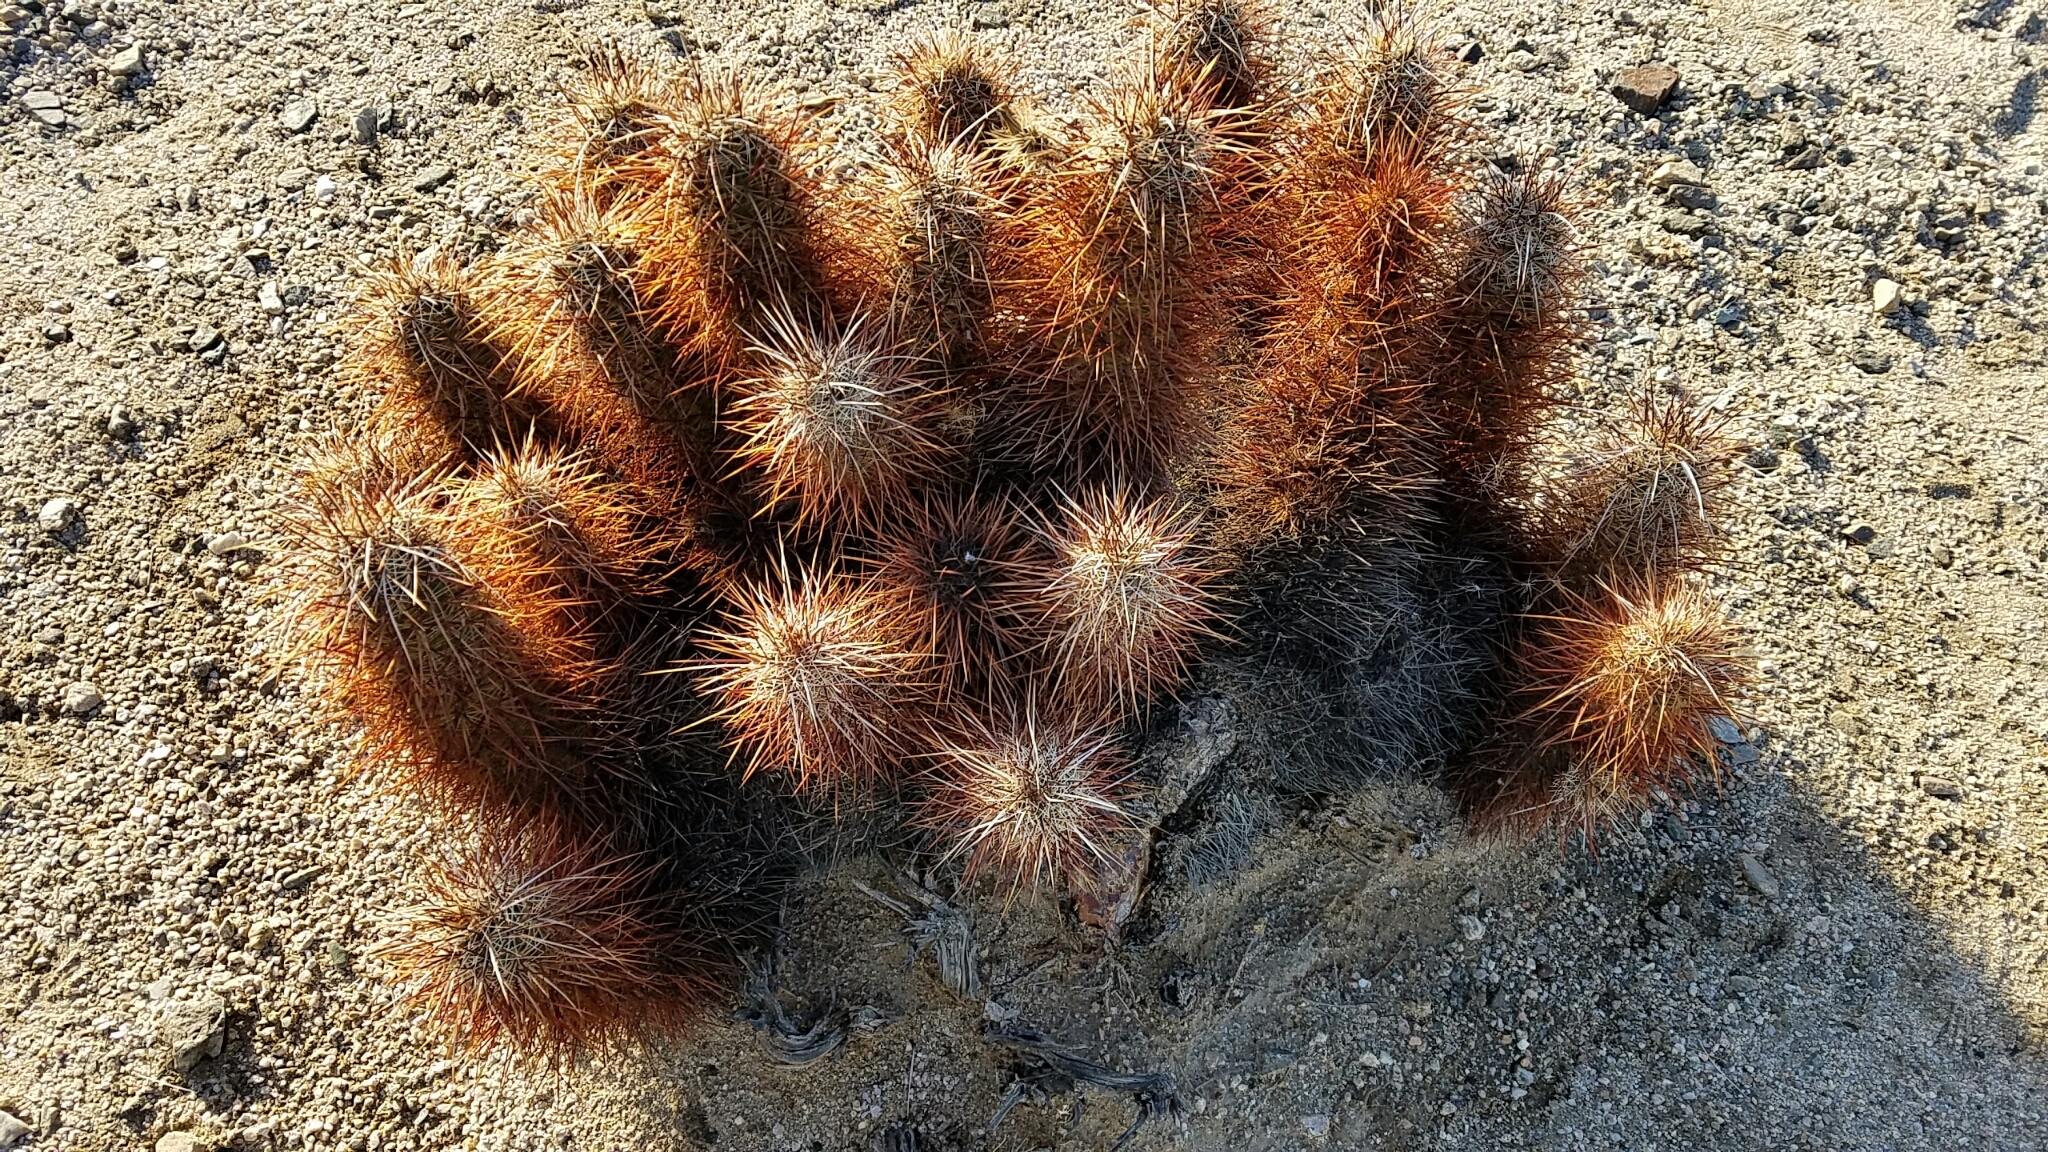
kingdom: Plantae
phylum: Tracheophyta
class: Magnoliopsida
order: Caryophyllales
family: Cactaceae
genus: Echinocereus
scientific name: Echinocereus engelmannii
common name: Engelmann's hedgehog cactus
